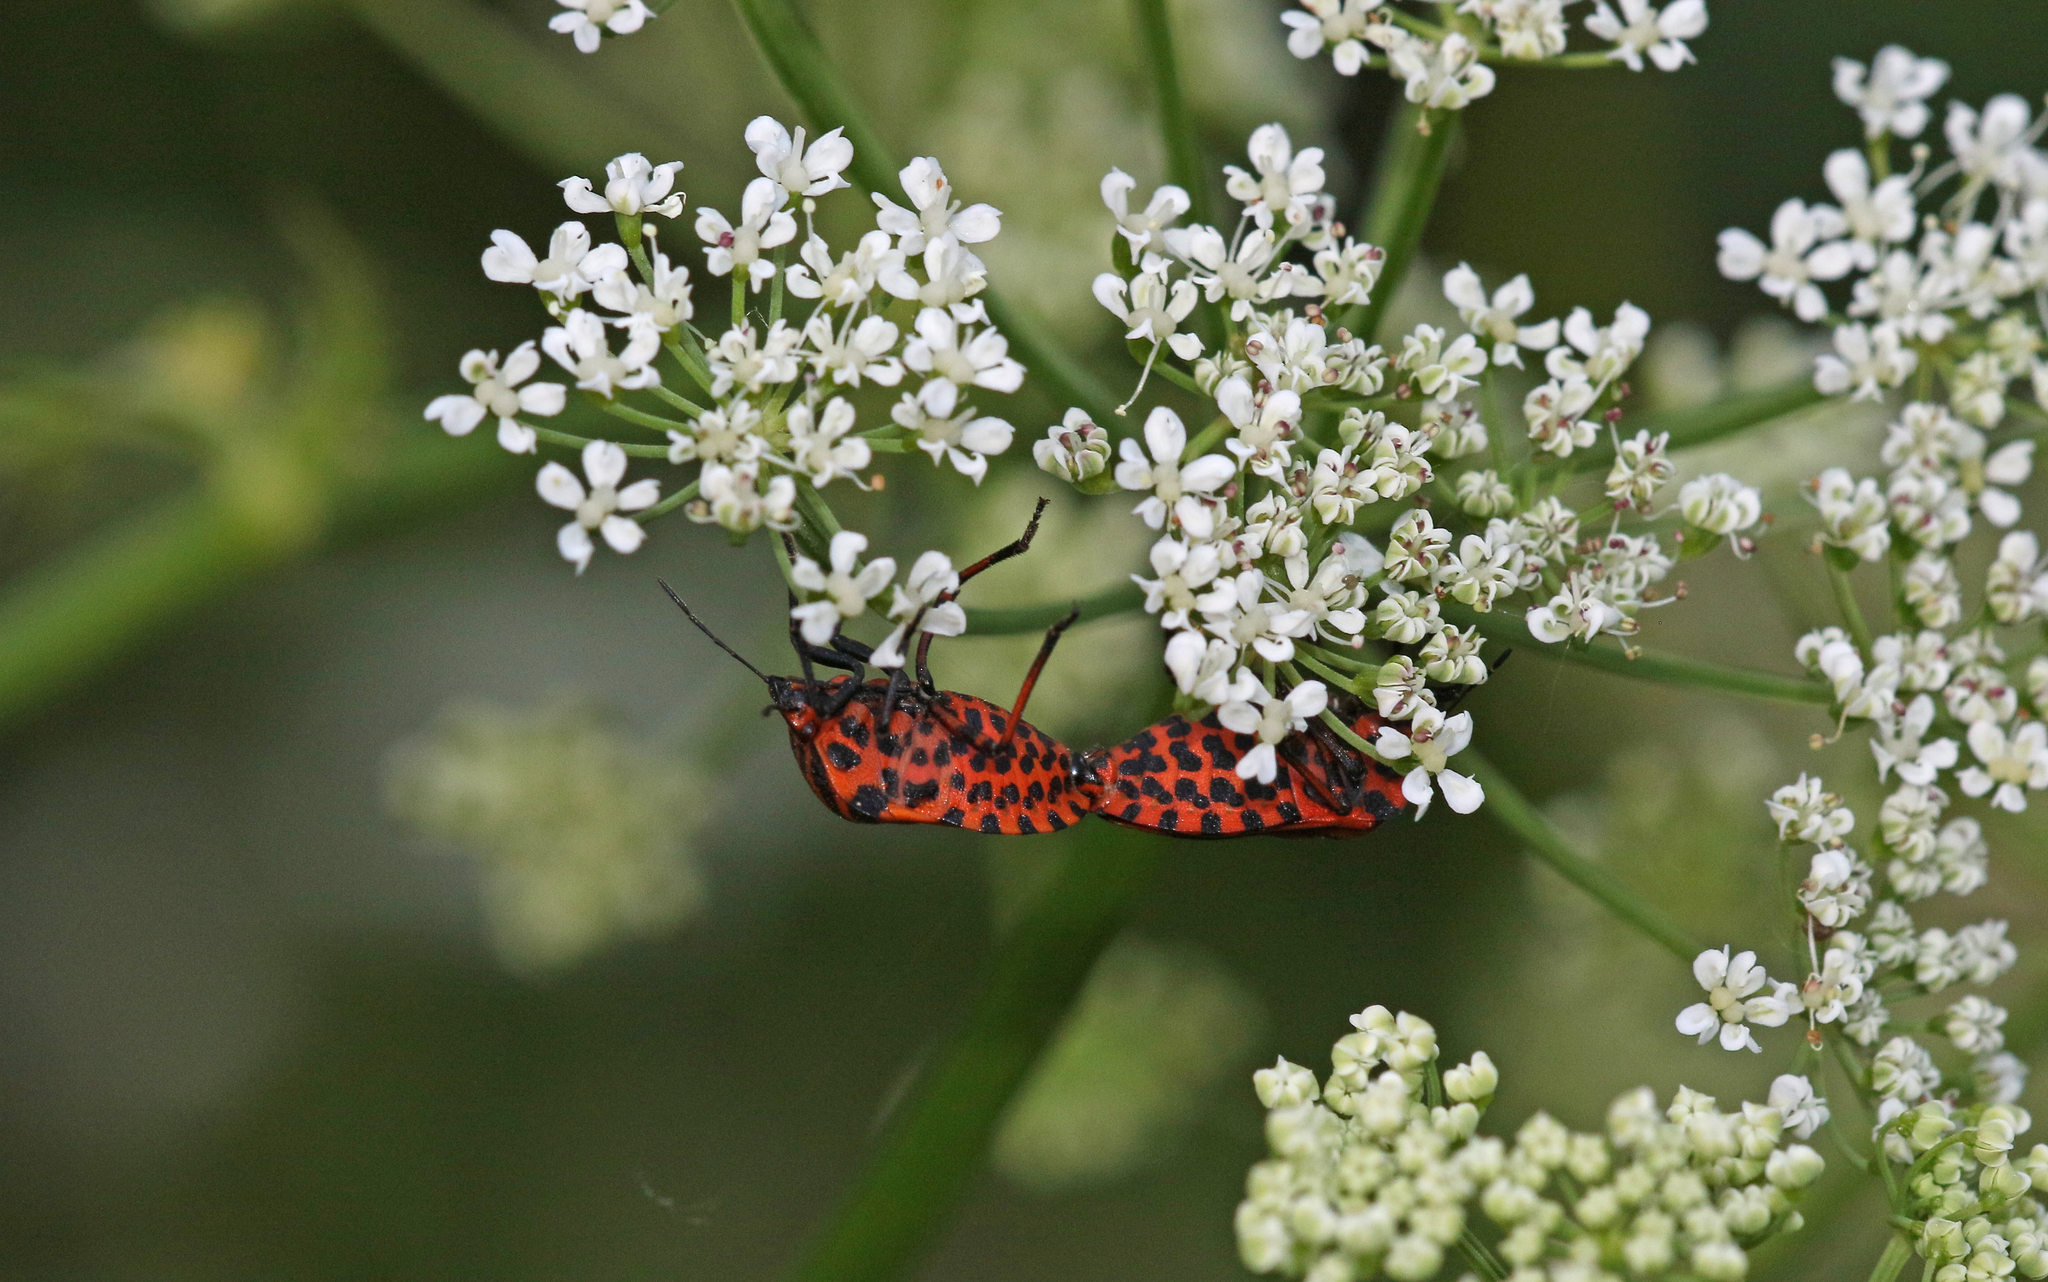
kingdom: Animalia
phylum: Arthropoda
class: Insecta
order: Hemiptera
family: Pentatomidae
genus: Graphosoma
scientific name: Graphosoma italicum
